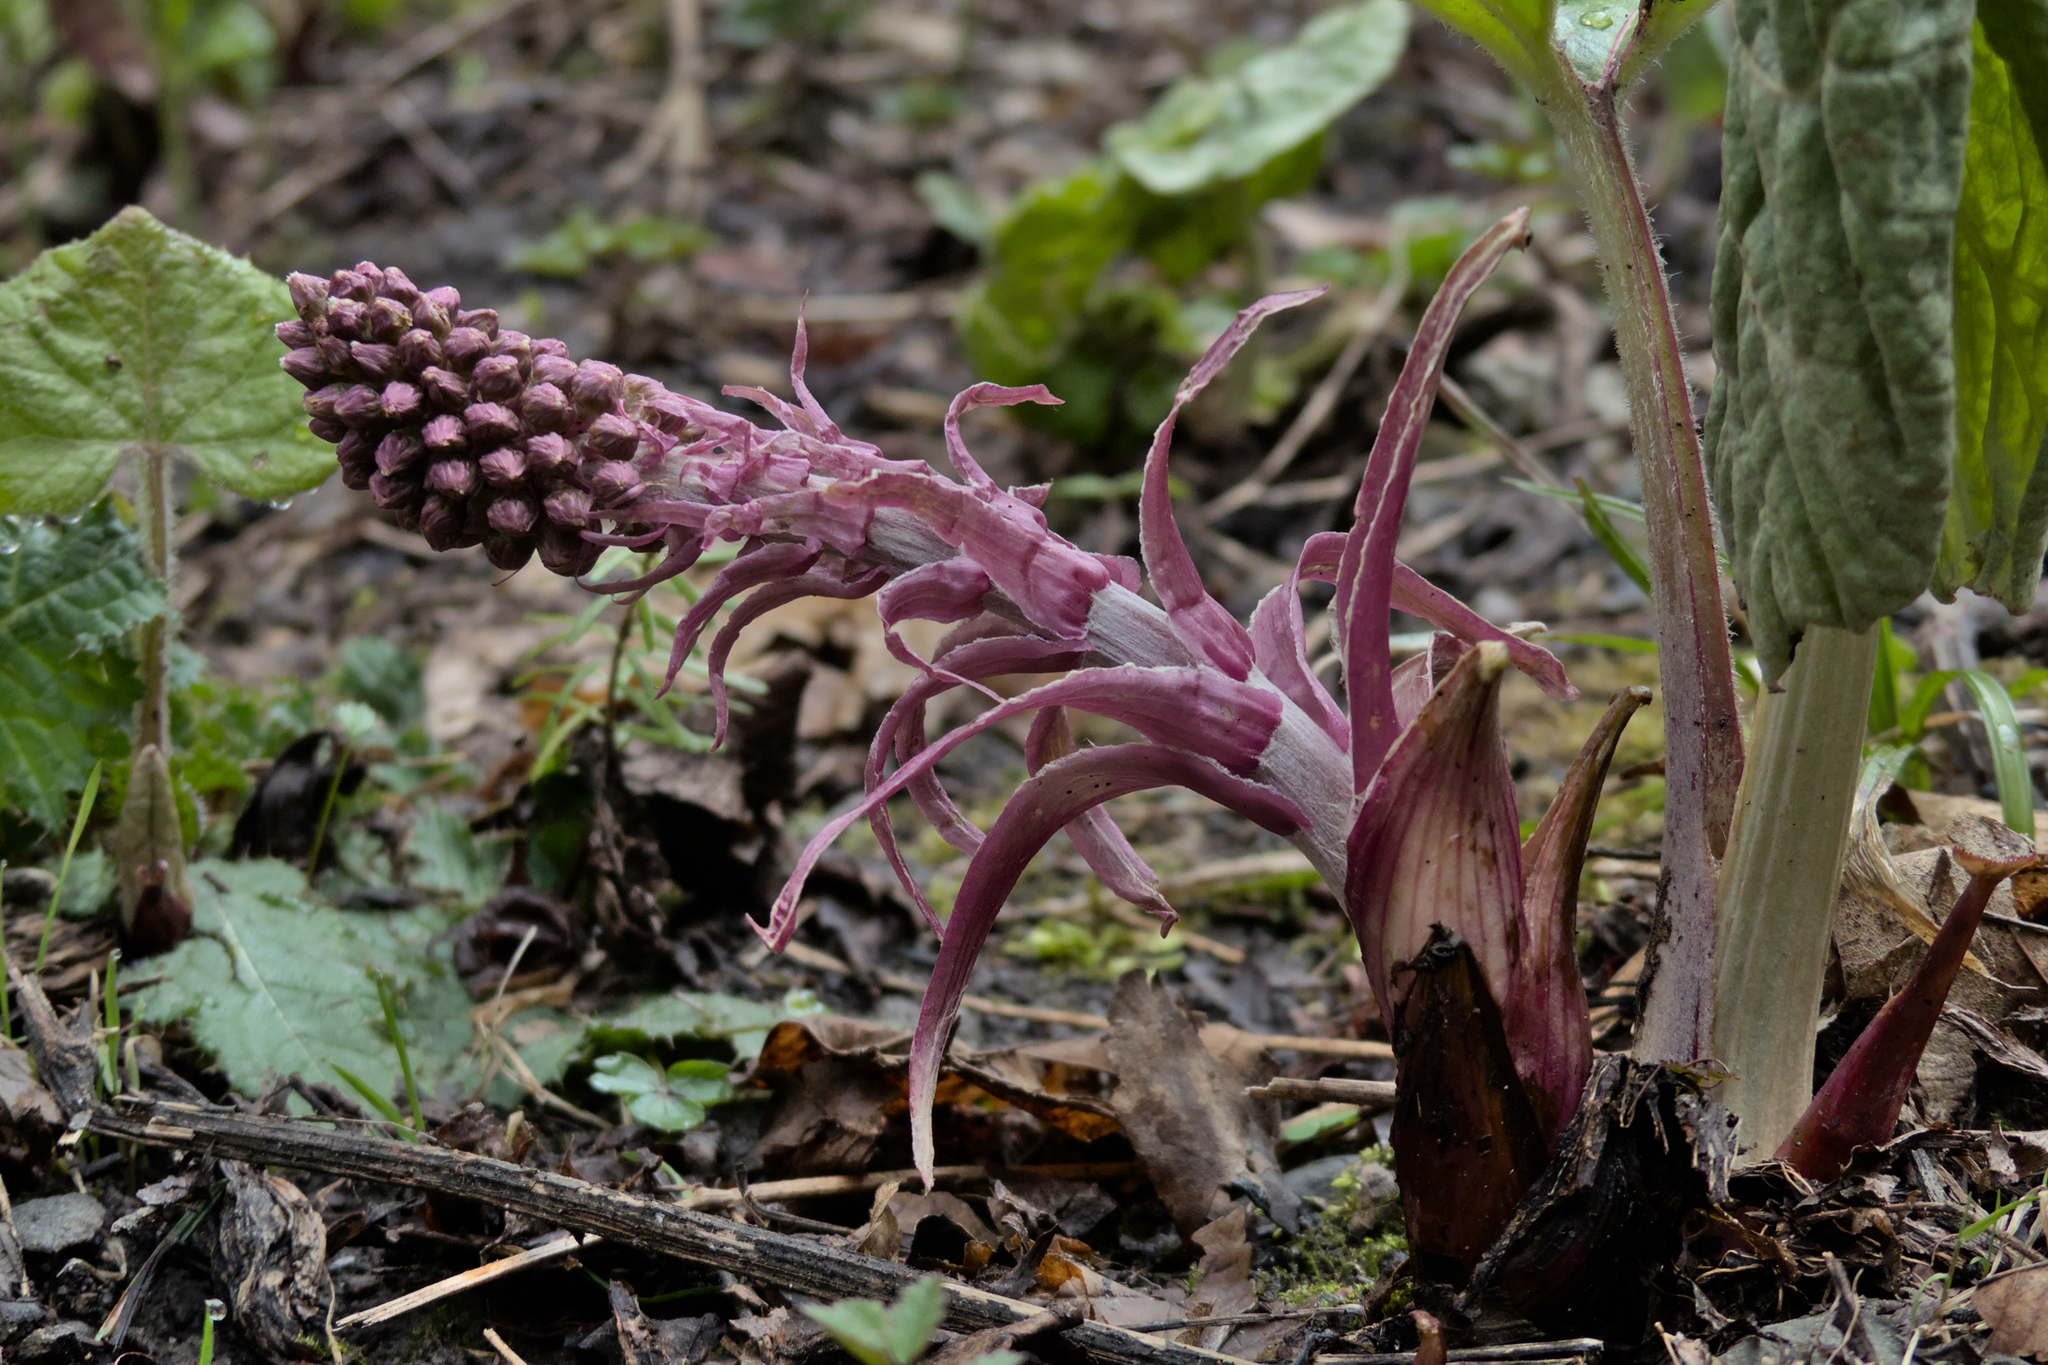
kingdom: Plantae
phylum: Tracheophyta
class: Magnoliopsida
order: Asterales
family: Asteraceae
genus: Petasites
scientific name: Petasites hybridus
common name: Butterbur
